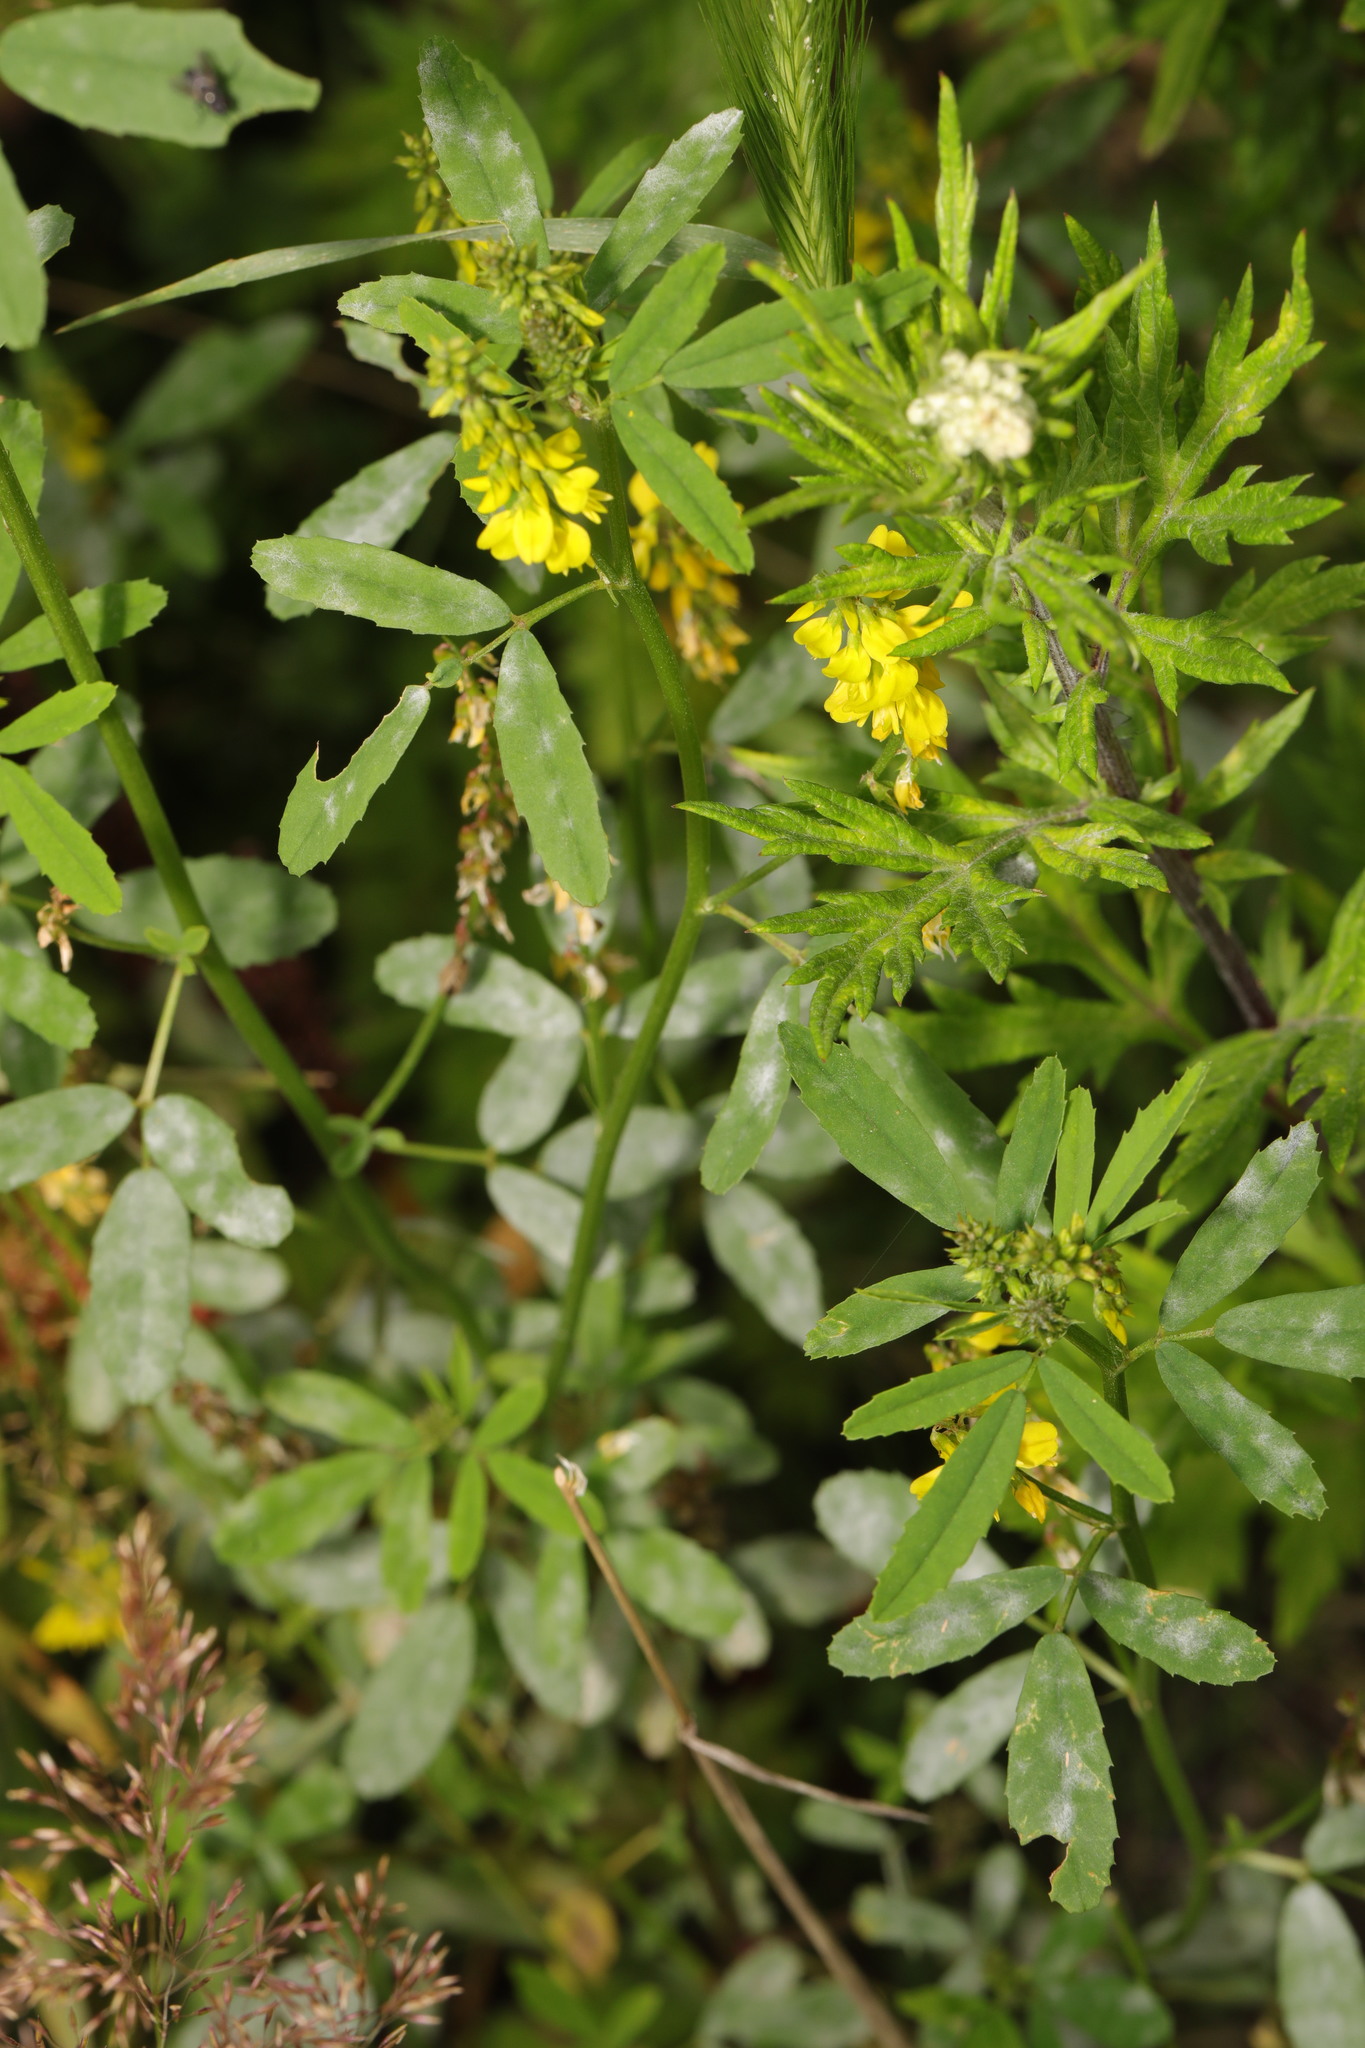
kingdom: Plantae
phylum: Tracheophyta
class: Magnoliopsida
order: Fabales
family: Fabaceae
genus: Melilotus
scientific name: Melilotus officinalis
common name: Sweetclover
